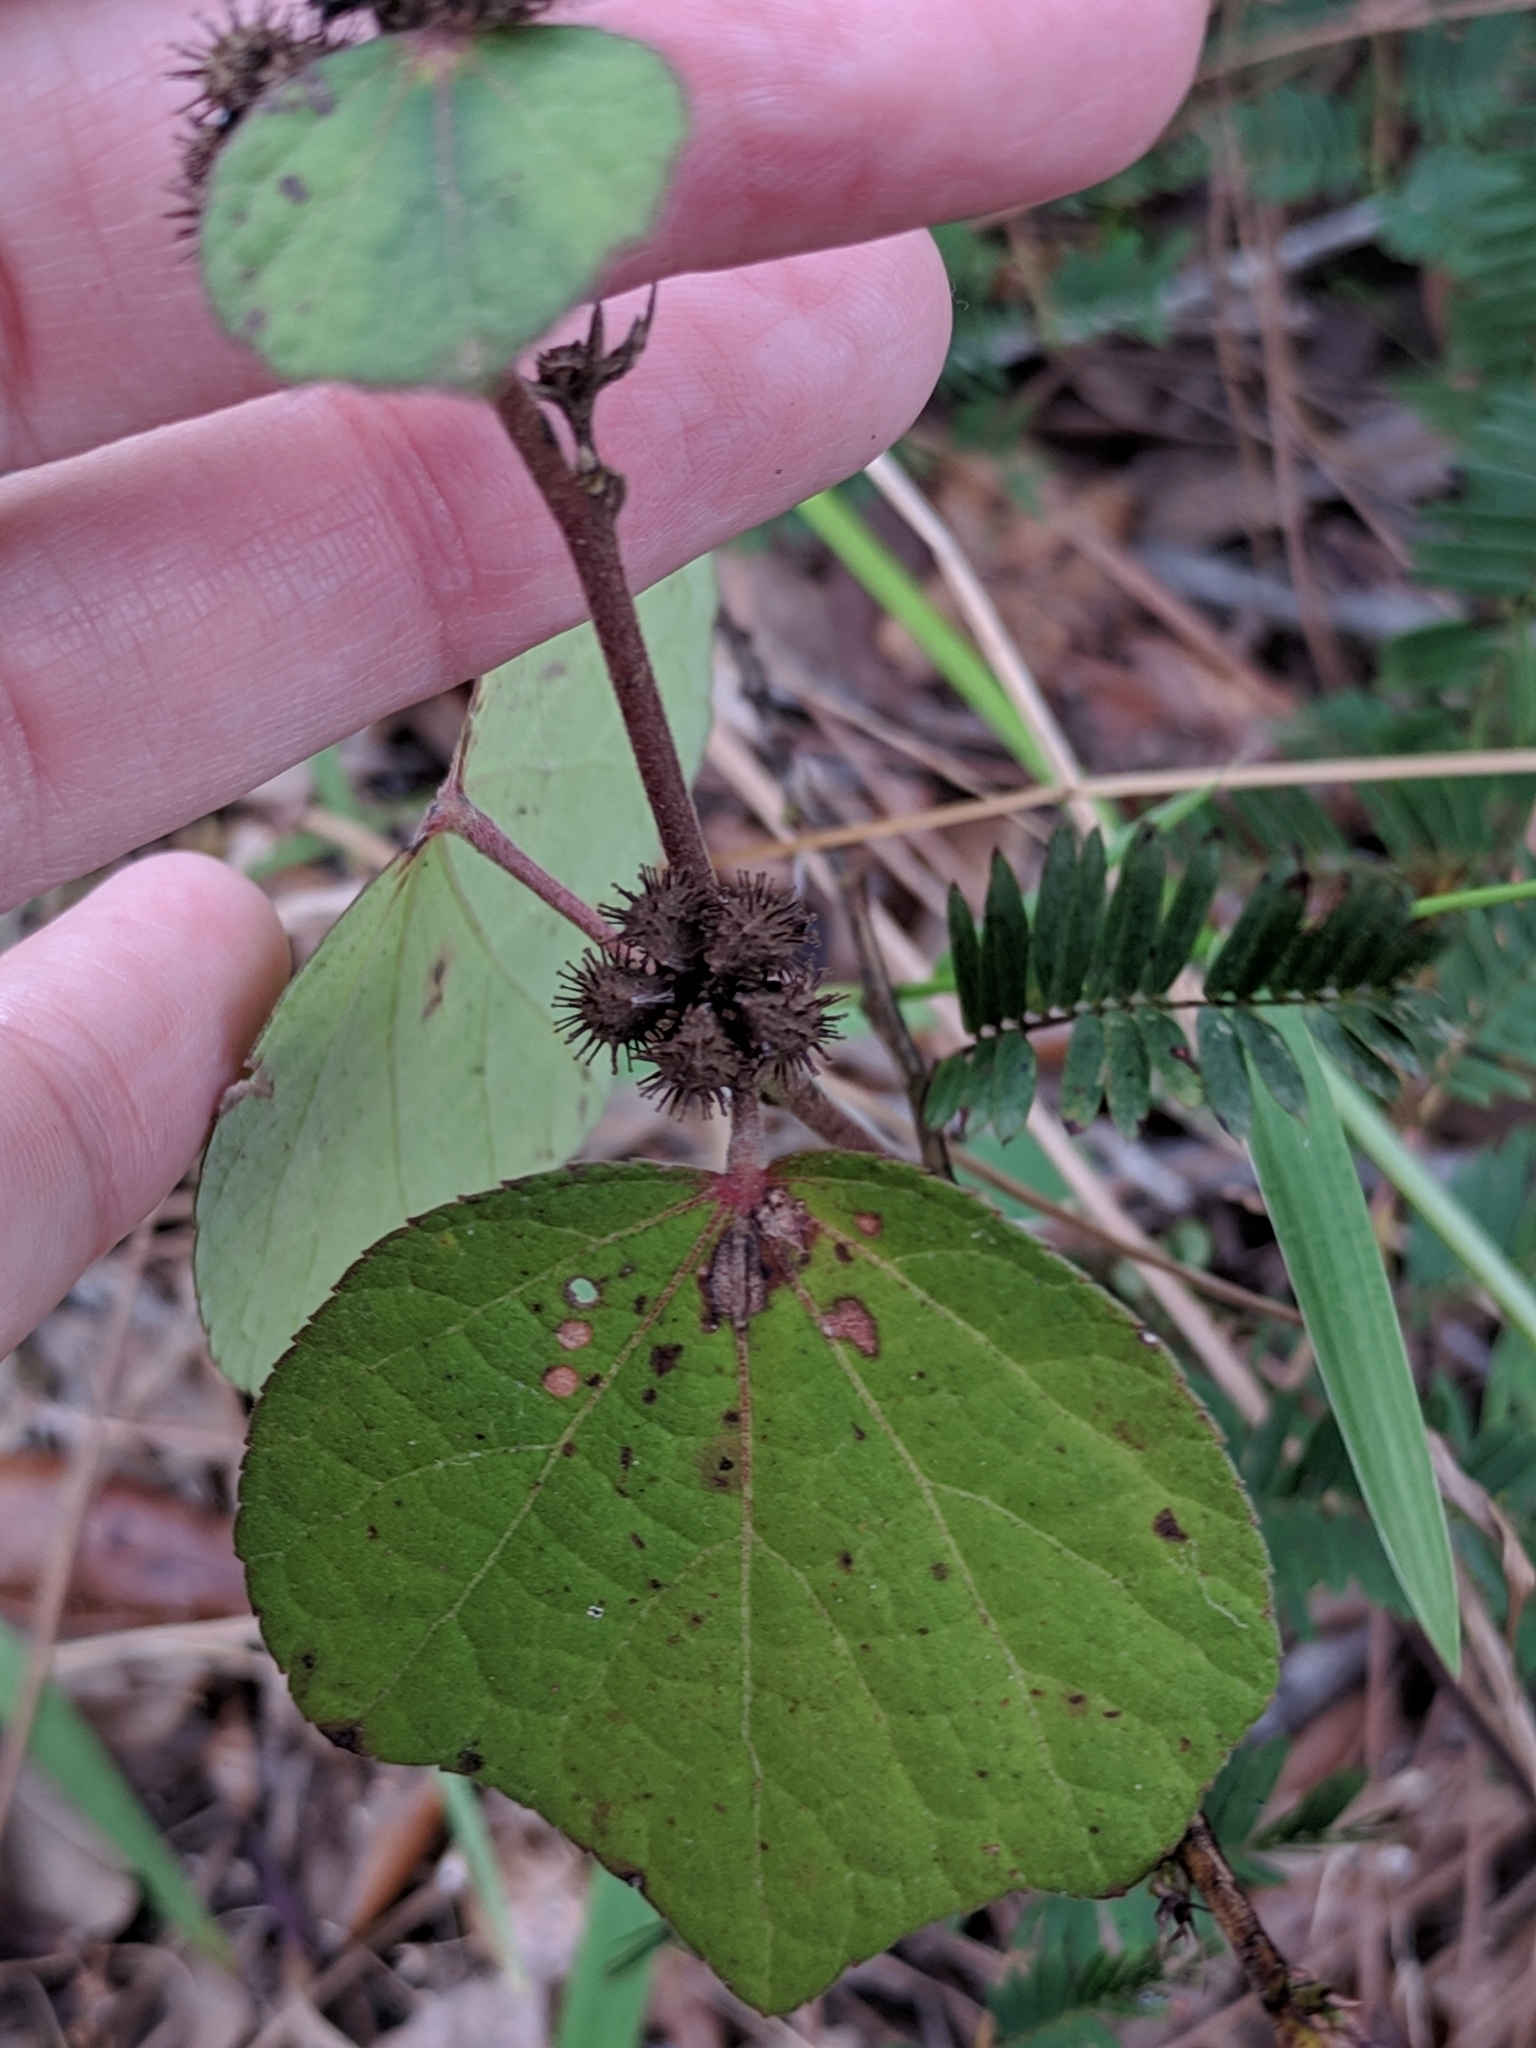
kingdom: Plantae
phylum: Tracheophyta
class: Magnoliopsida
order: Malvales
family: Malvaceae
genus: Urena
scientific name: Urena lobata
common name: Caesarweed
